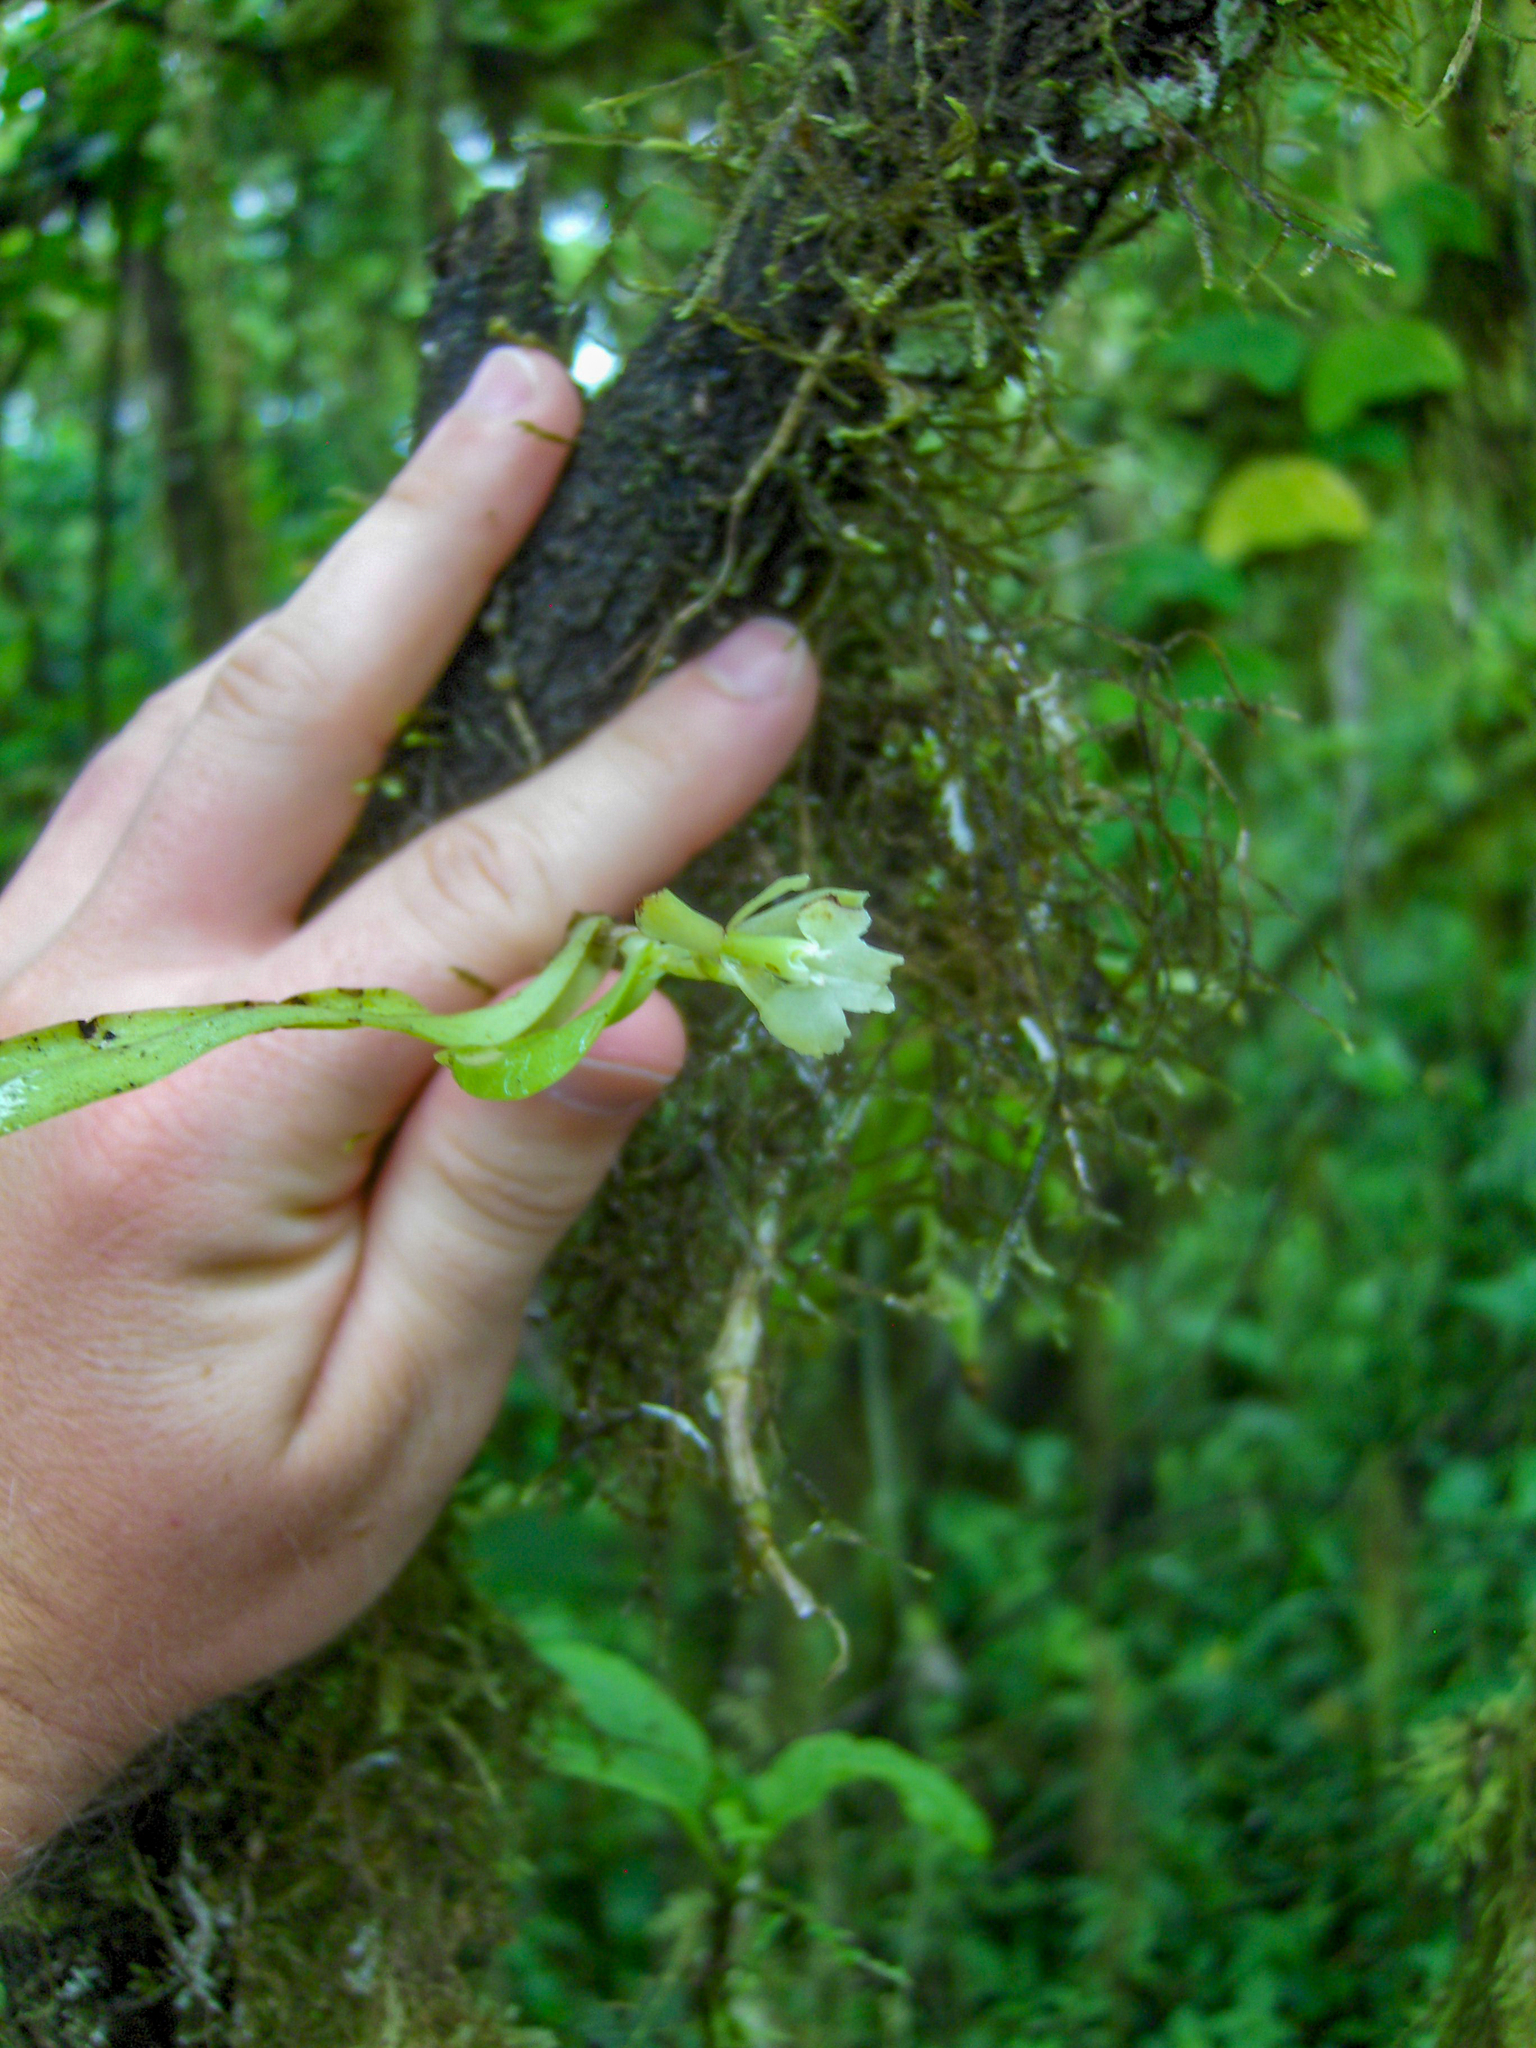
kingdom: Plantae
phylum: Tracheophyta
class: Liliopsida
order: Asparagales
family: Orchidaceae
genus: Epidendrum
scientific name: Epidendrum spicatum
